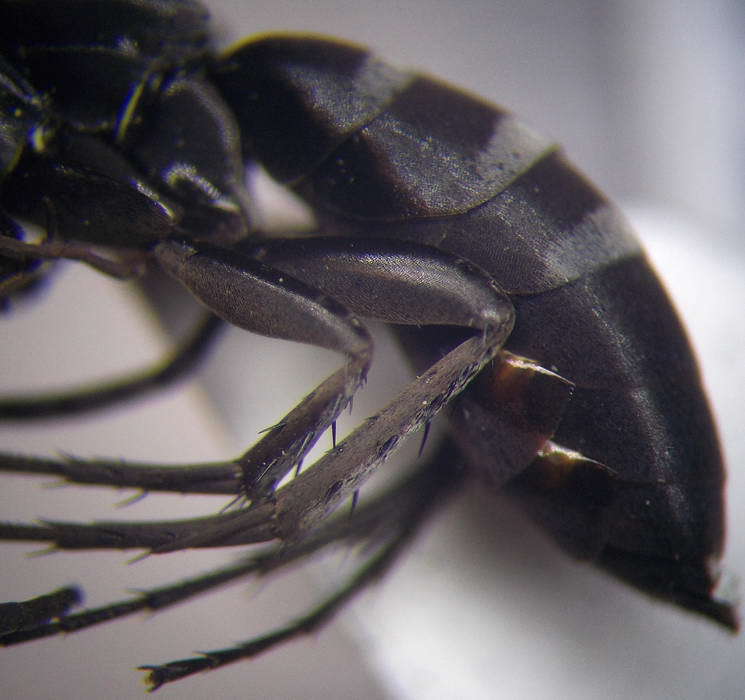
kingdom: Animalia
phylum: Arthropoda
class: Insecta
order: Hymenoptera
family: Pompilidae
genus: Aporinellus
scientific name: Aporinellus sexmaculatus
